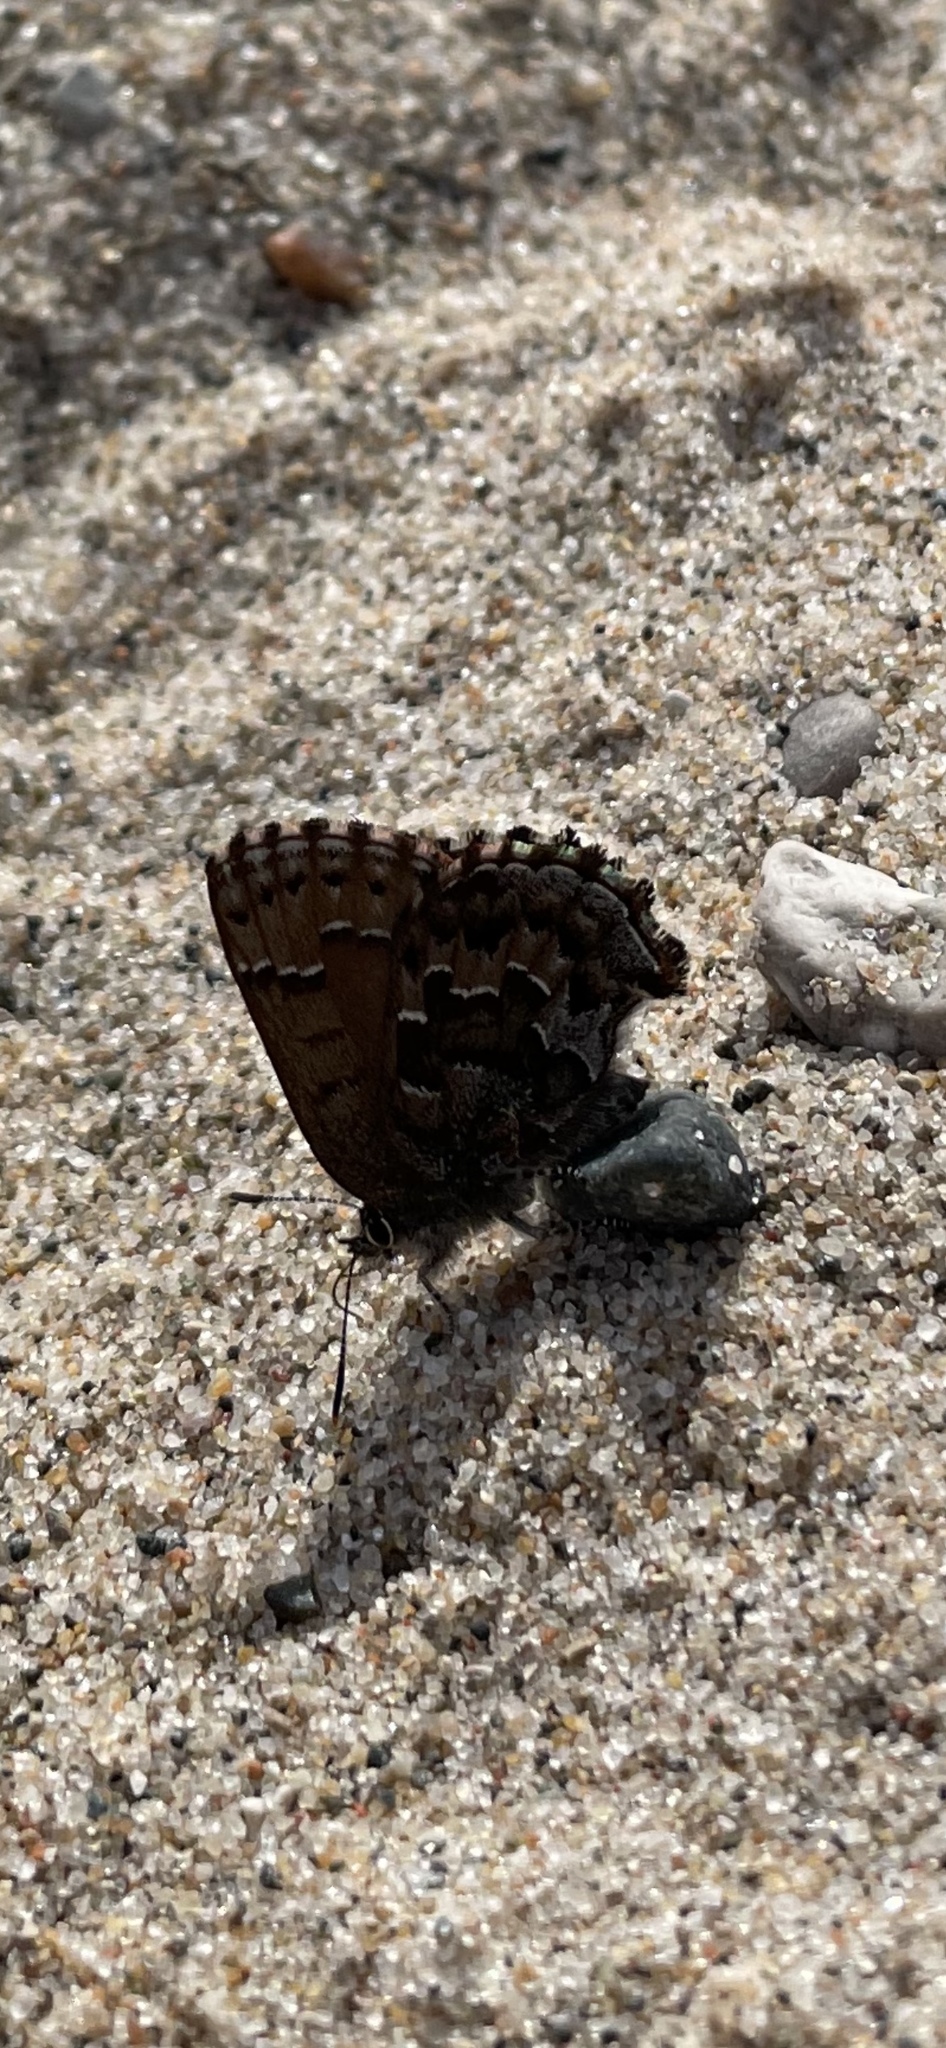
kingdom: Animalia
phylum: Arthropoda
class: Insecta
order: Lepidoptera
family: Lycaenidae
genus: Incisalia
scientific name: Incisalia niphon
